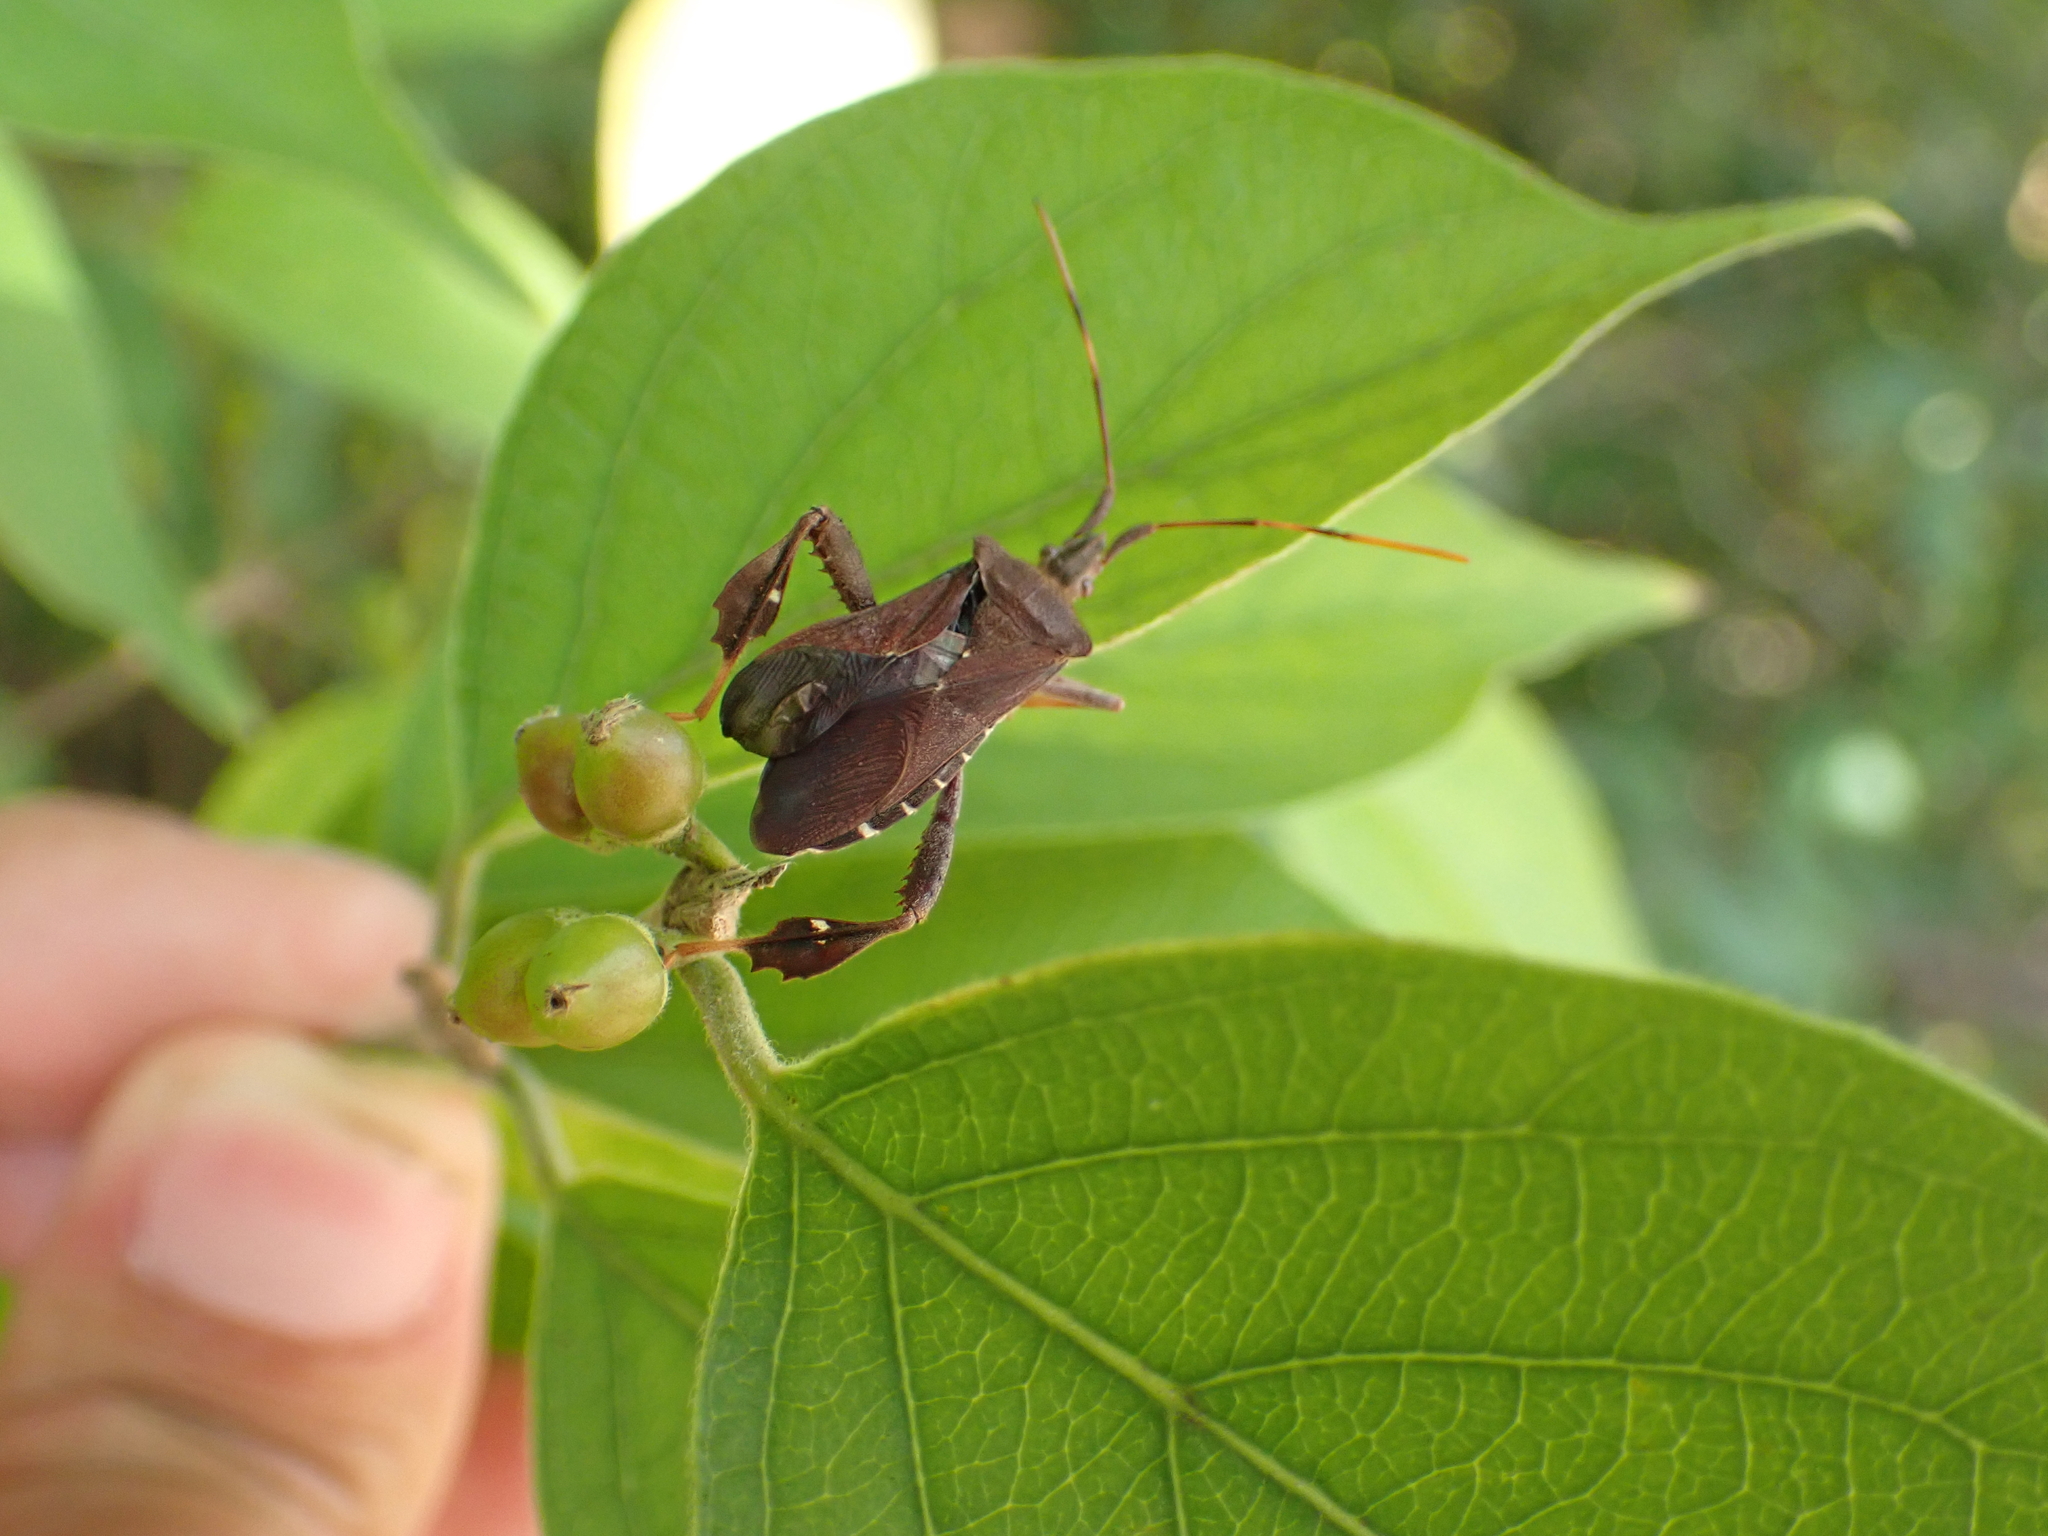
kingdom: Animalia
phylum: Arthropoda
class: Insecta
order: Hemiptera
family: Coreidae
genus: Leptoglossus
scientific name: Leptoglossus oppositus
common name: Northern leaf-footed bug
